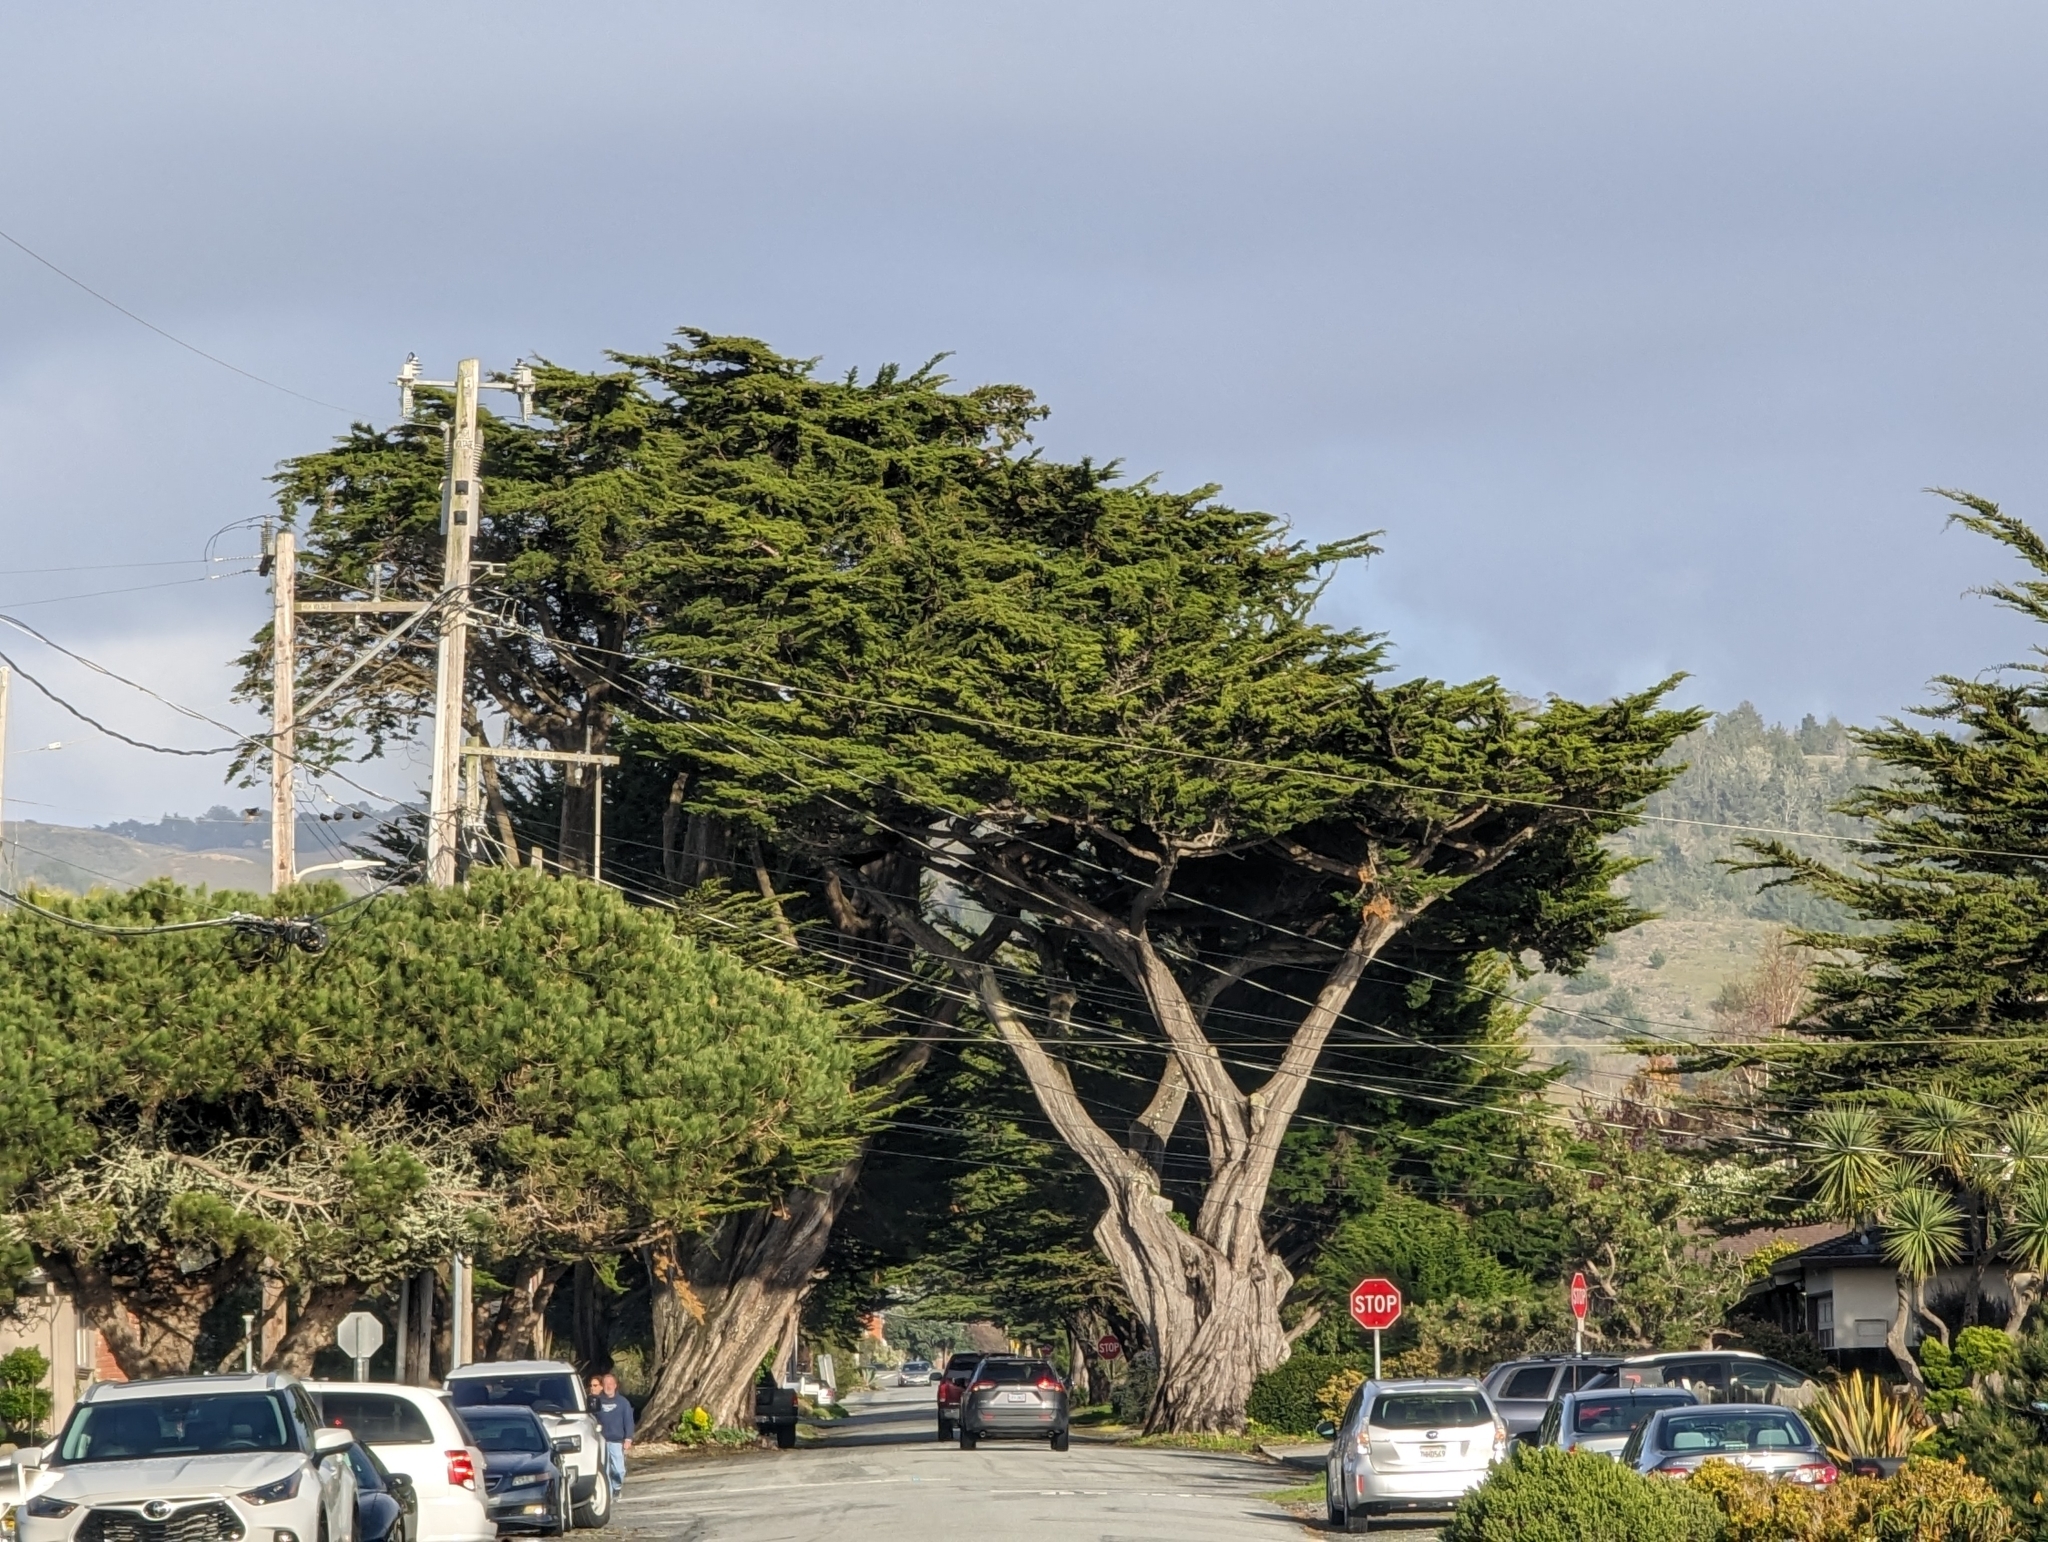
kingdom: Plantae
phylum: Tracheophyta
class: Pinopsida
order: Pinales
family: Cupressaceae
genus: Cupressus
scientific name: Cupressus macrocarpa
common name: Monterey cypress
